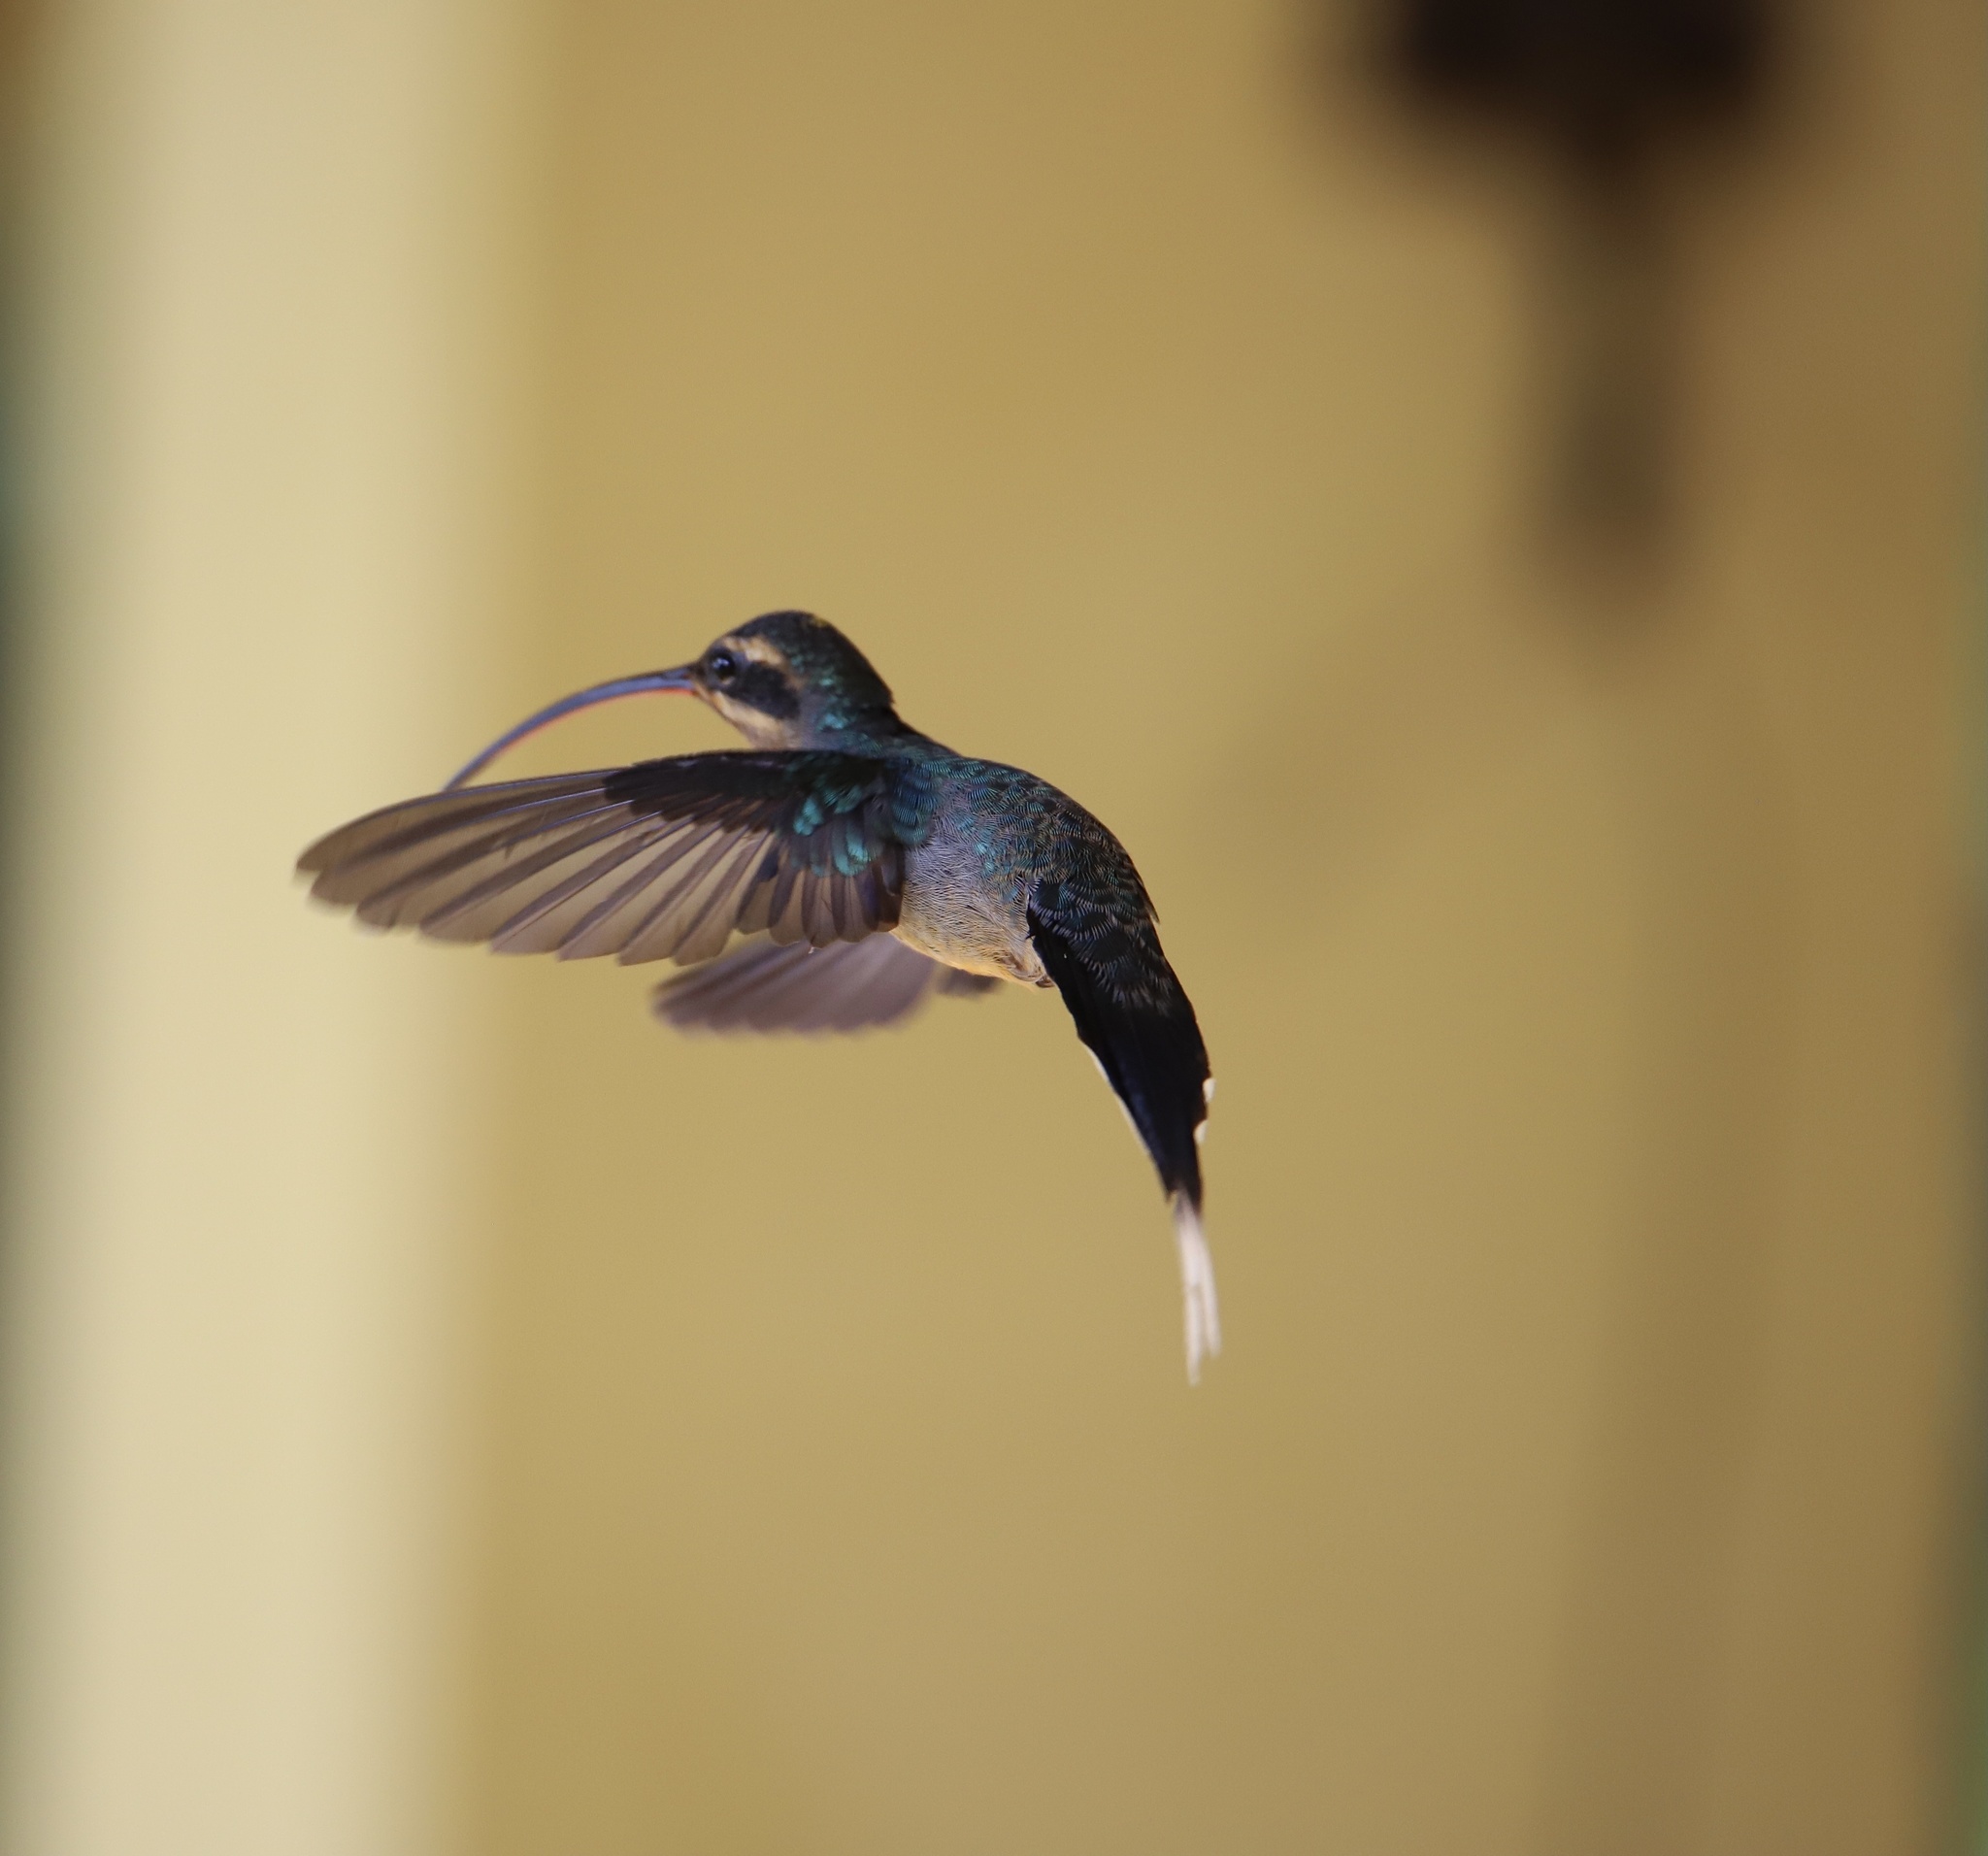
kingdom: Animalia
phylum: Chordata
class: Aves
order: Apodiformes
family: Trochilidae
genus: Phaethornis
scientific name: Phaethornis guy
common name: Green hermit
